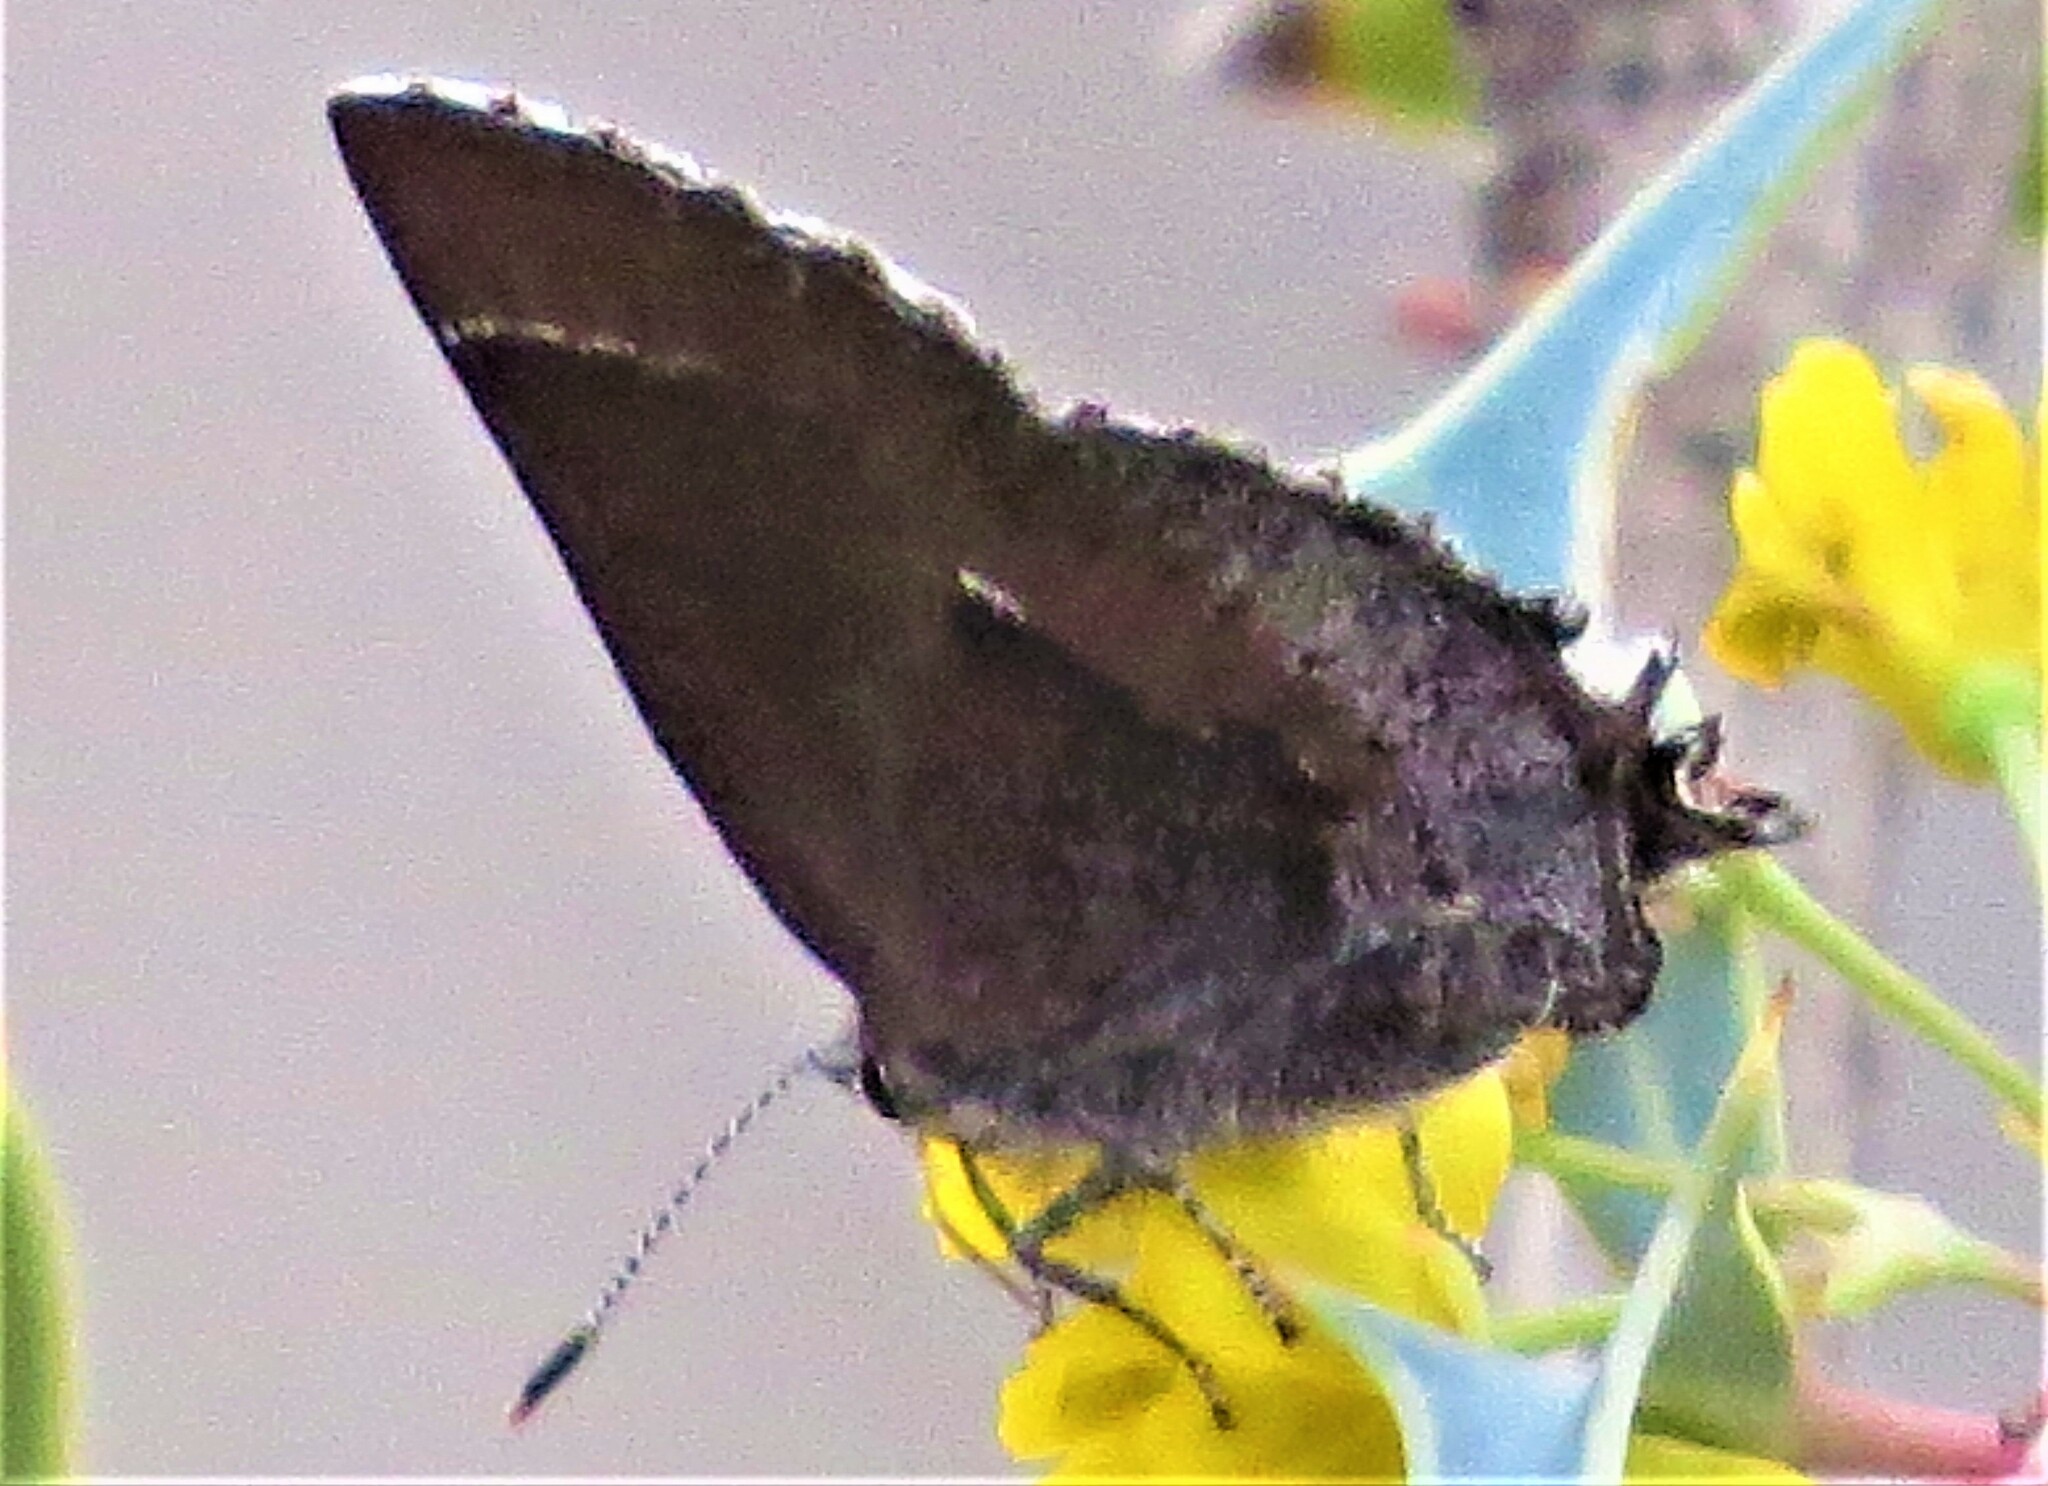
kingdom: Animalia
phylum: Arthropoda
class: Insecta
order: Lepidoptera
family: Lycaenidae
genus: Incisalia
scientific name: Incisalia henrici
